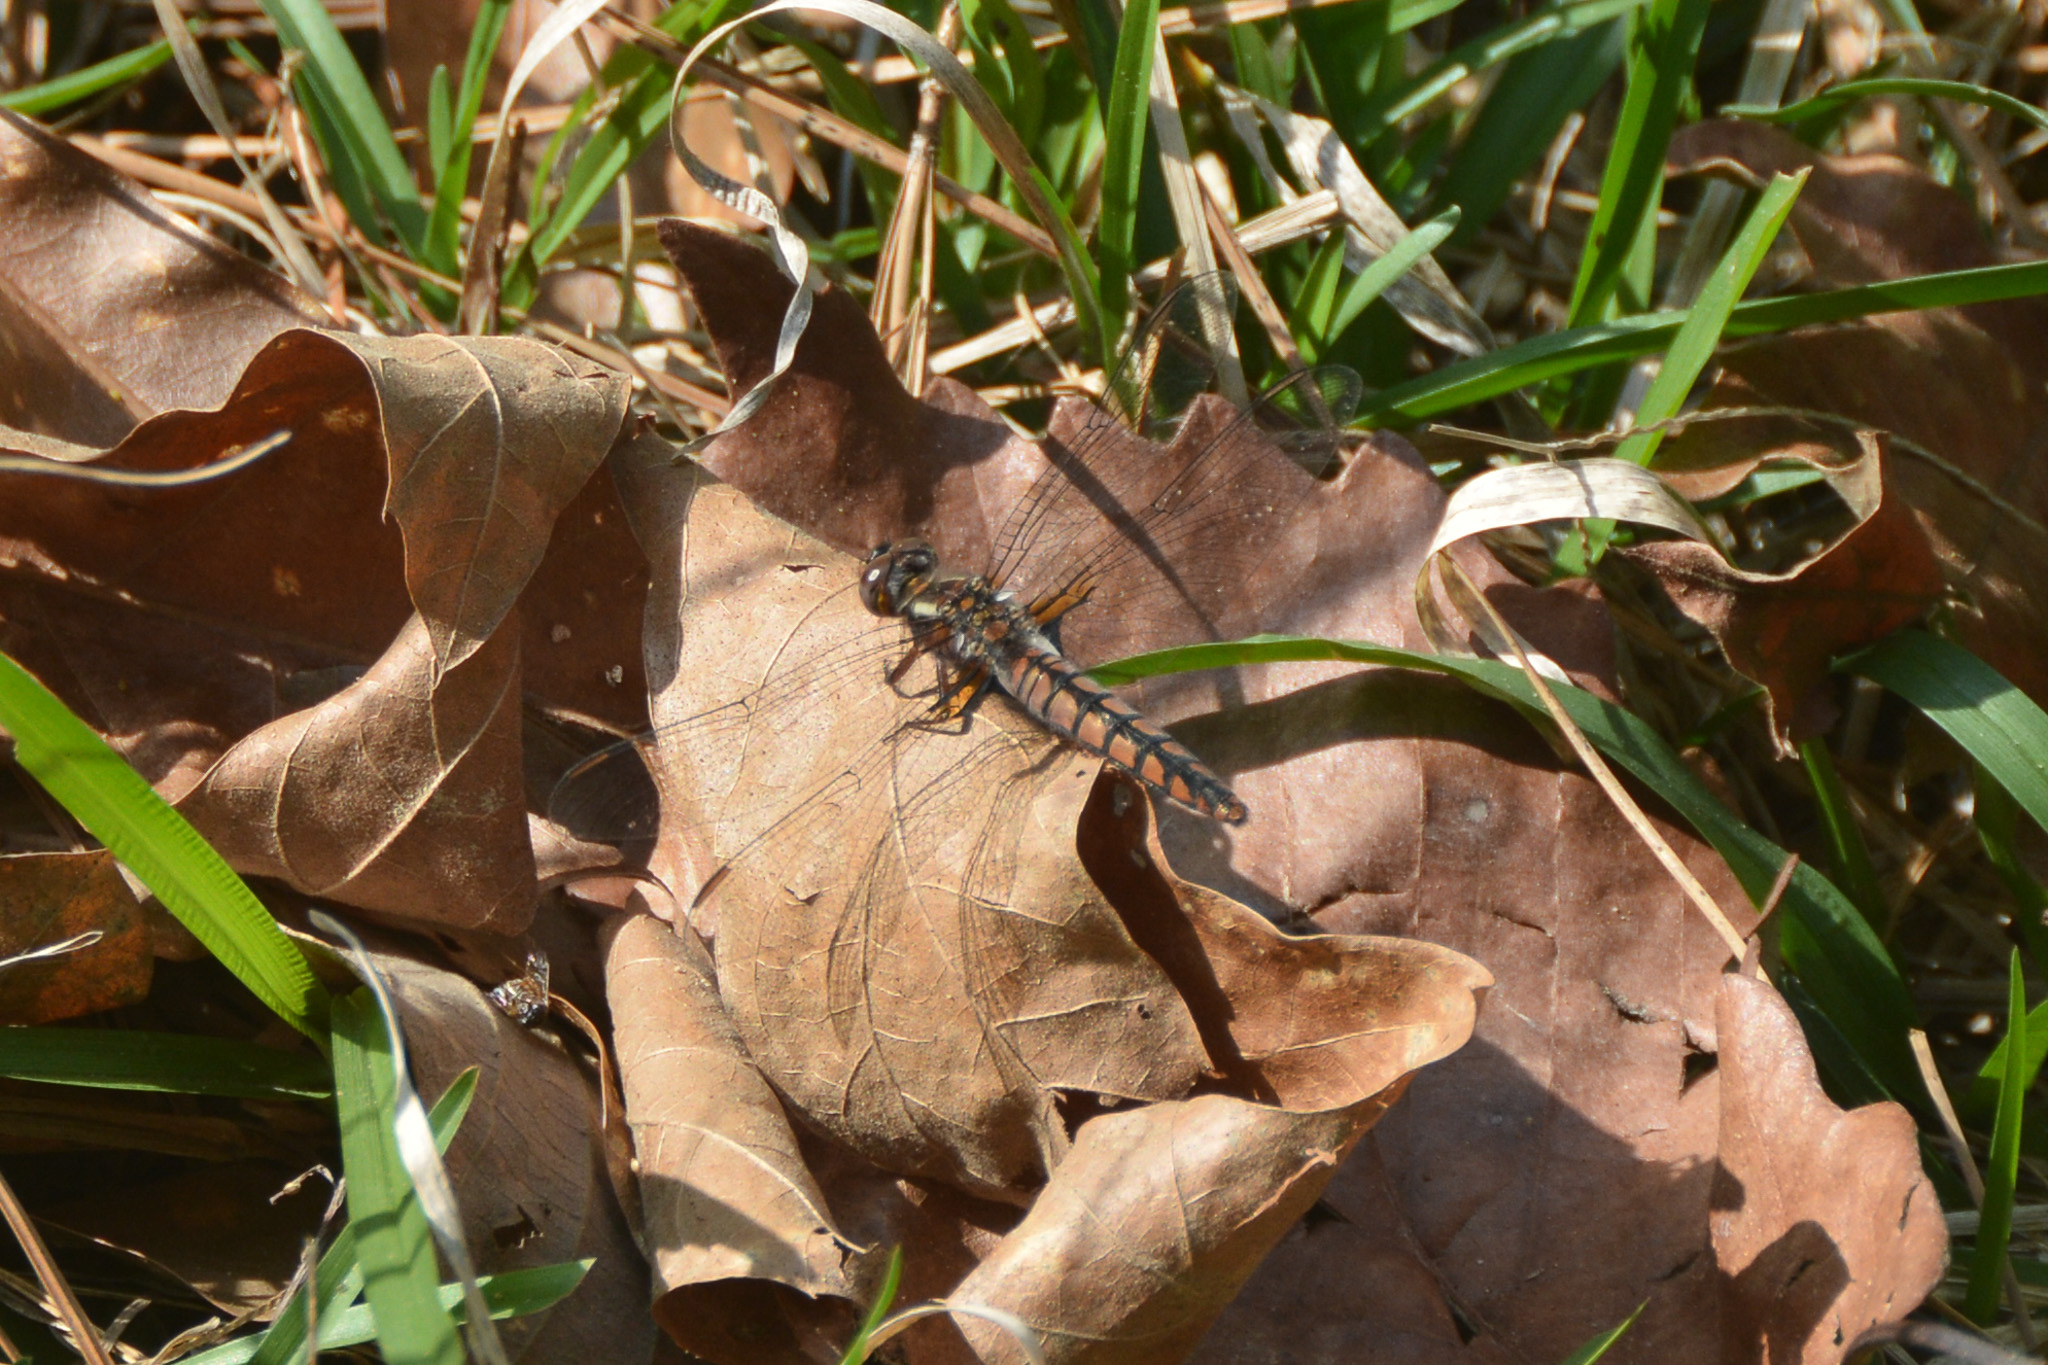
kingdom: Animalia
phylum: Arthropoda
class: Insecta
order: Odonata
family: Libellulidae
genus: Ladona
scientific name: Ladona deplanata
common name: Blue corporal
